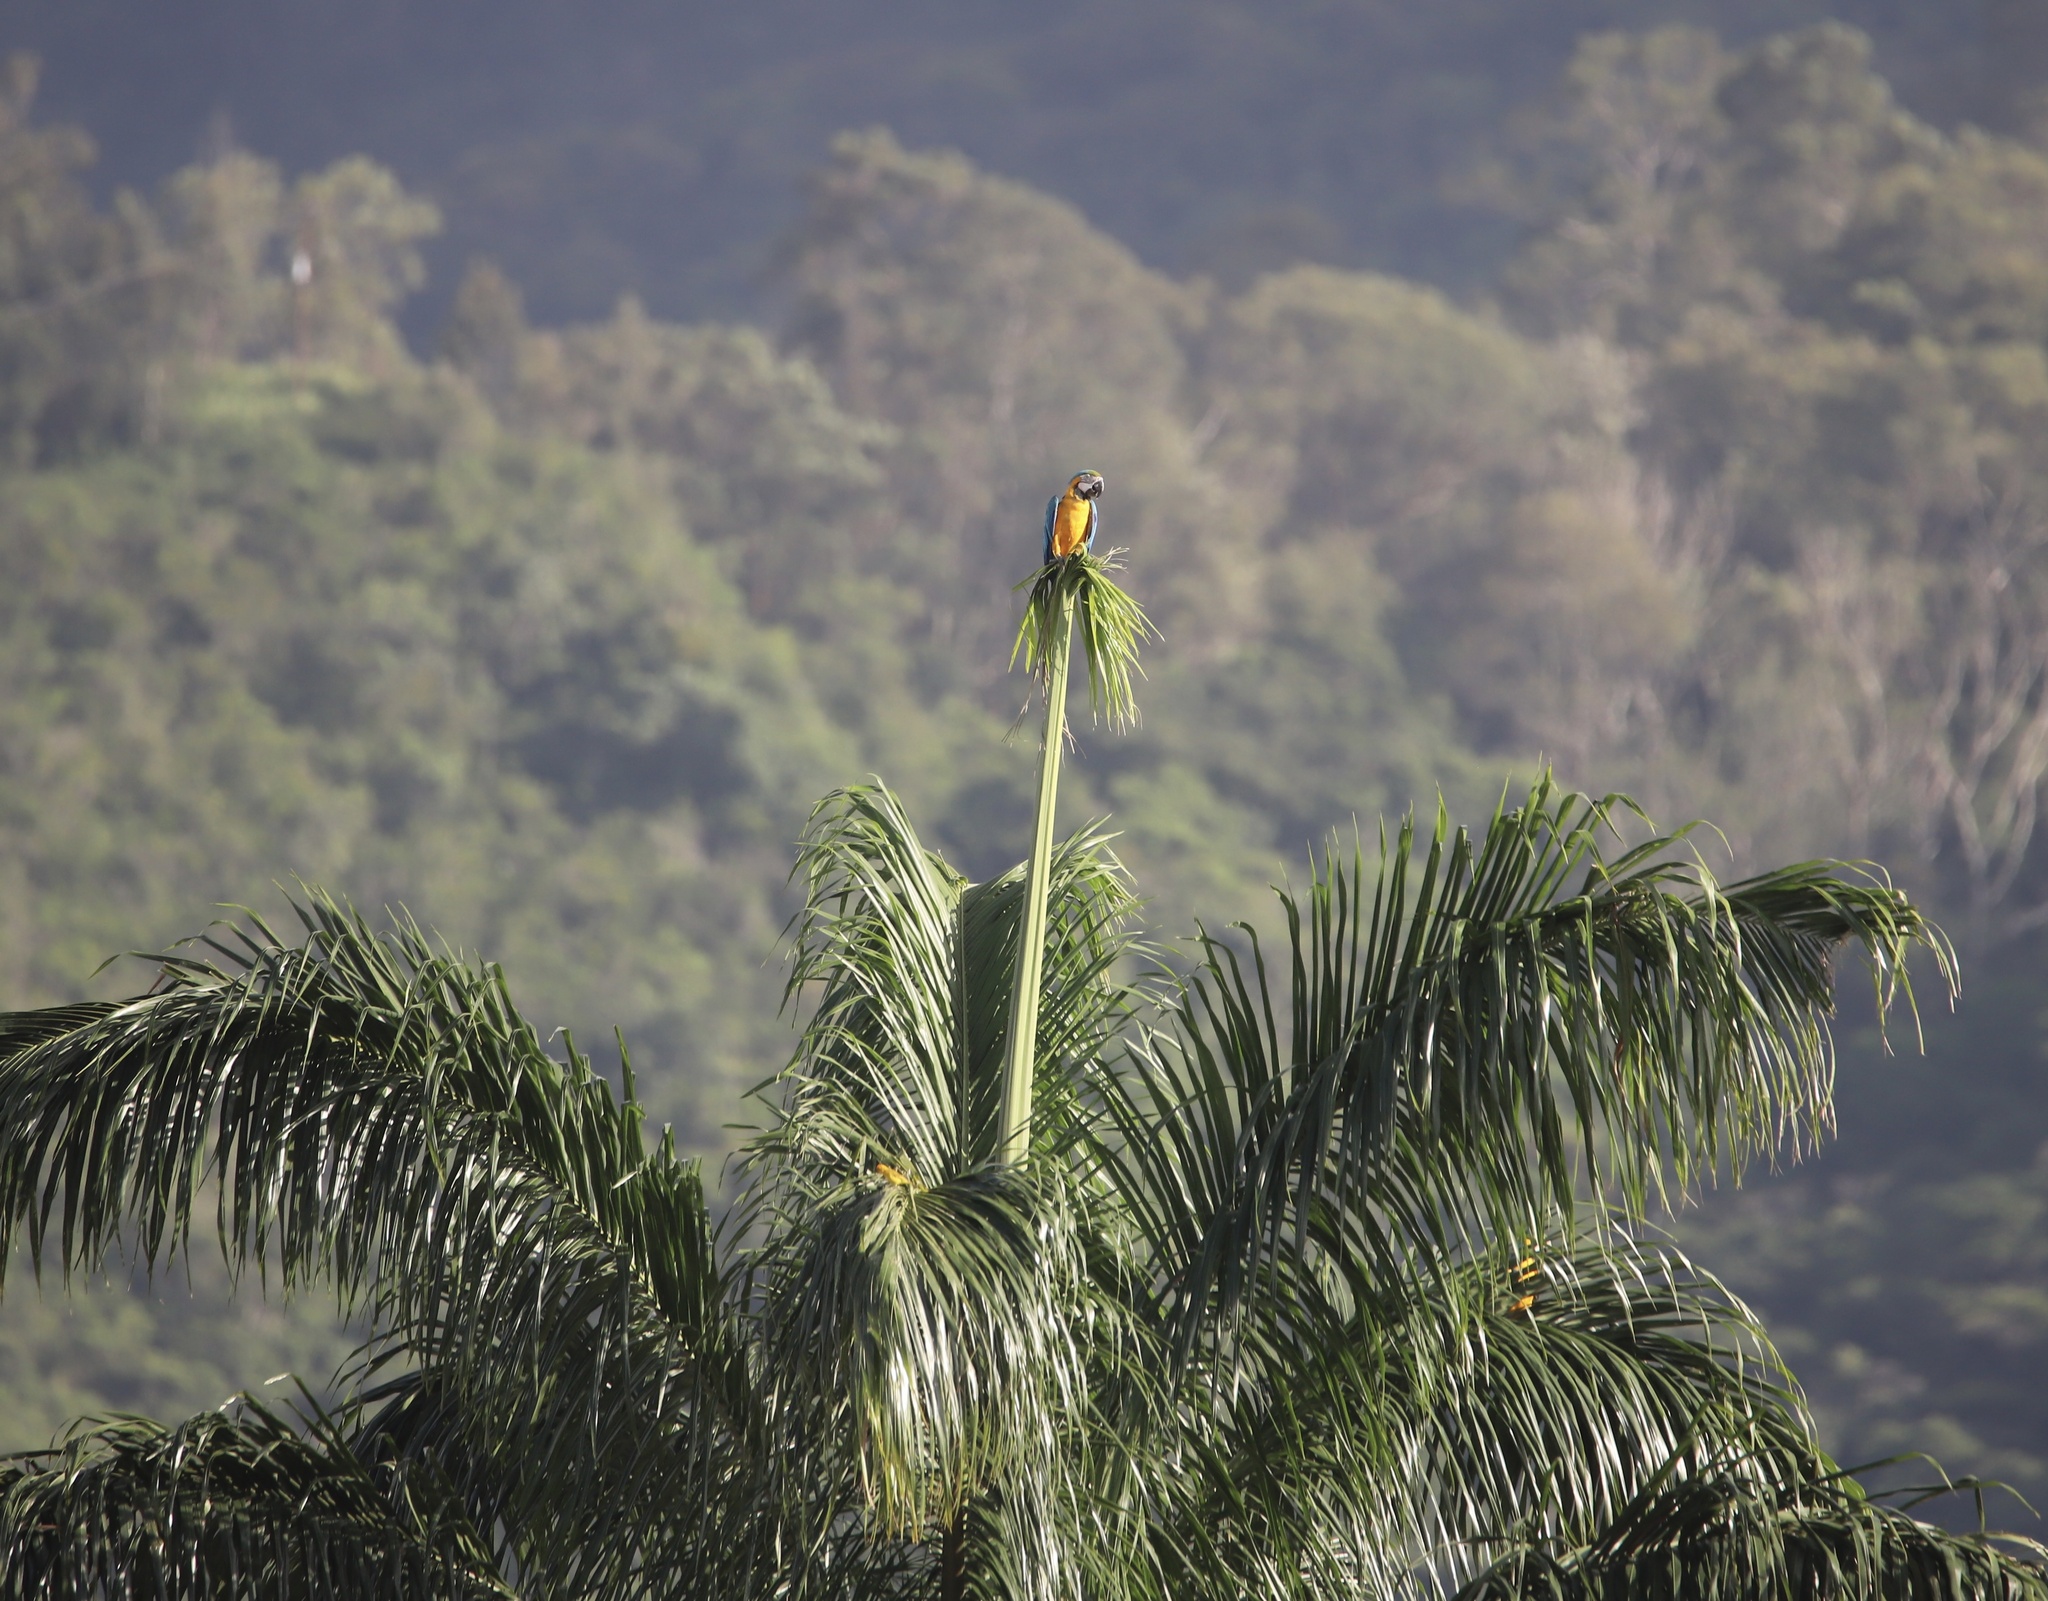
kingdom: Animalia
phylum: Chordata
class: Aves
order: Psittaciformes
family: Psittacidae
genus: Ara
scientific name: Ara ararauna
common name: Blue-and-yellow macaw
